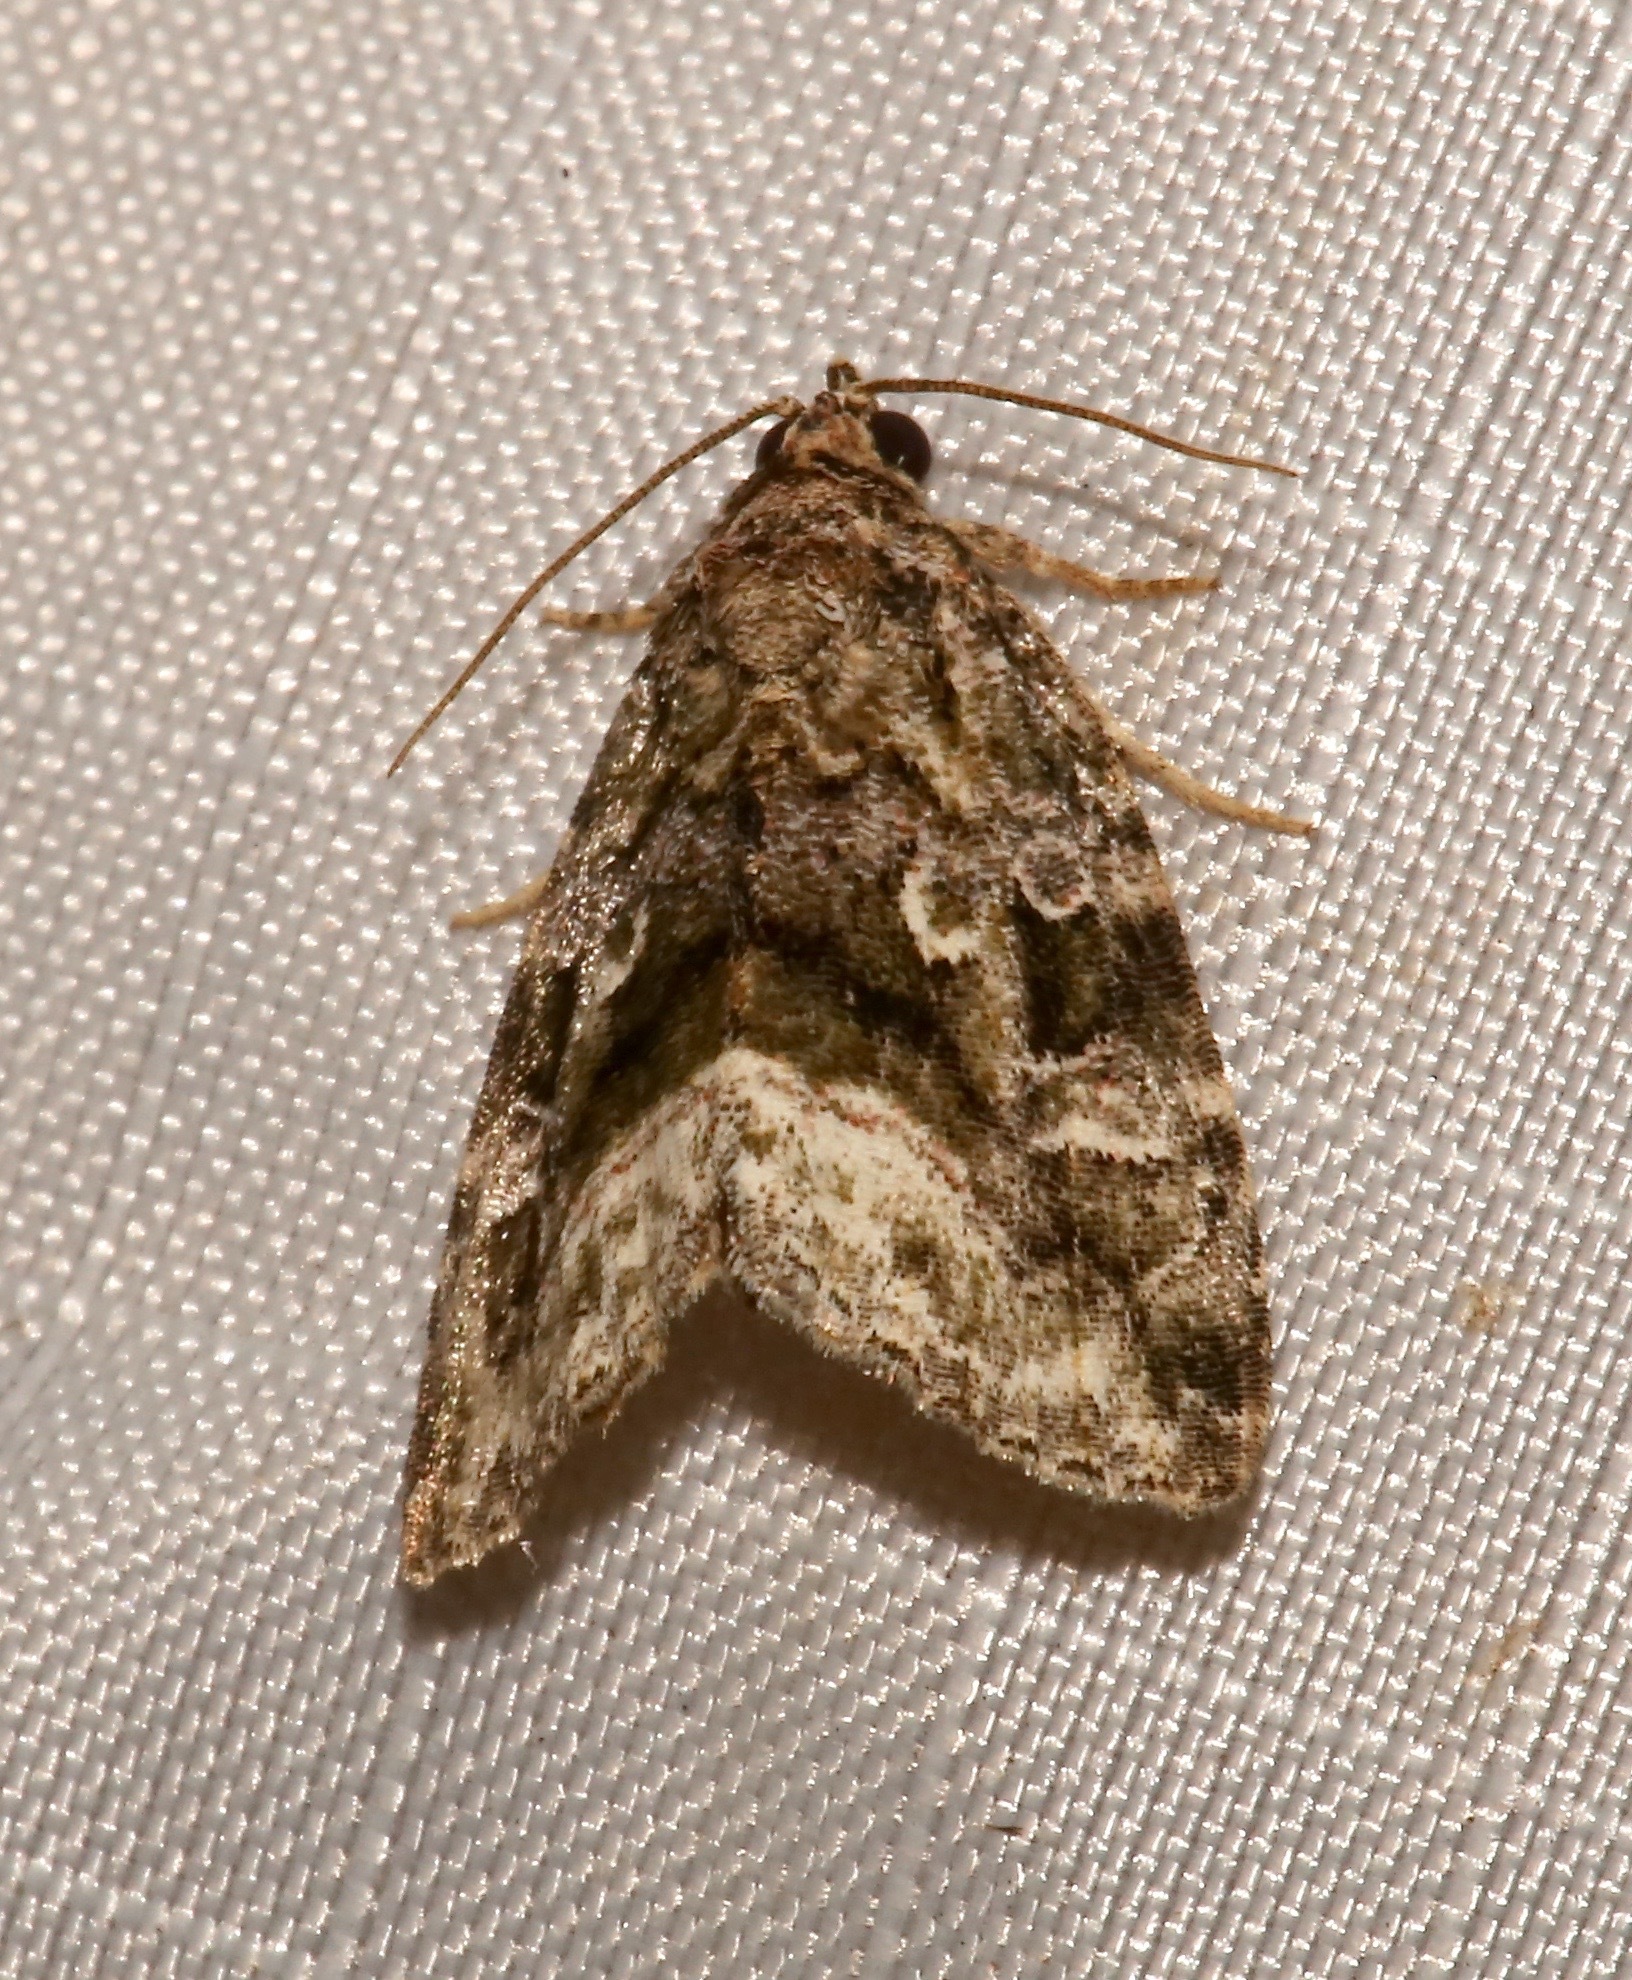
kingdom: Animalia
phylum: Arthropoda
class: Insecta
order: Lepidoptera
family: Noctuidae
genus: Protodeltote
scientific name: Protodeltote muscosula
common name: Large mossy glyph
